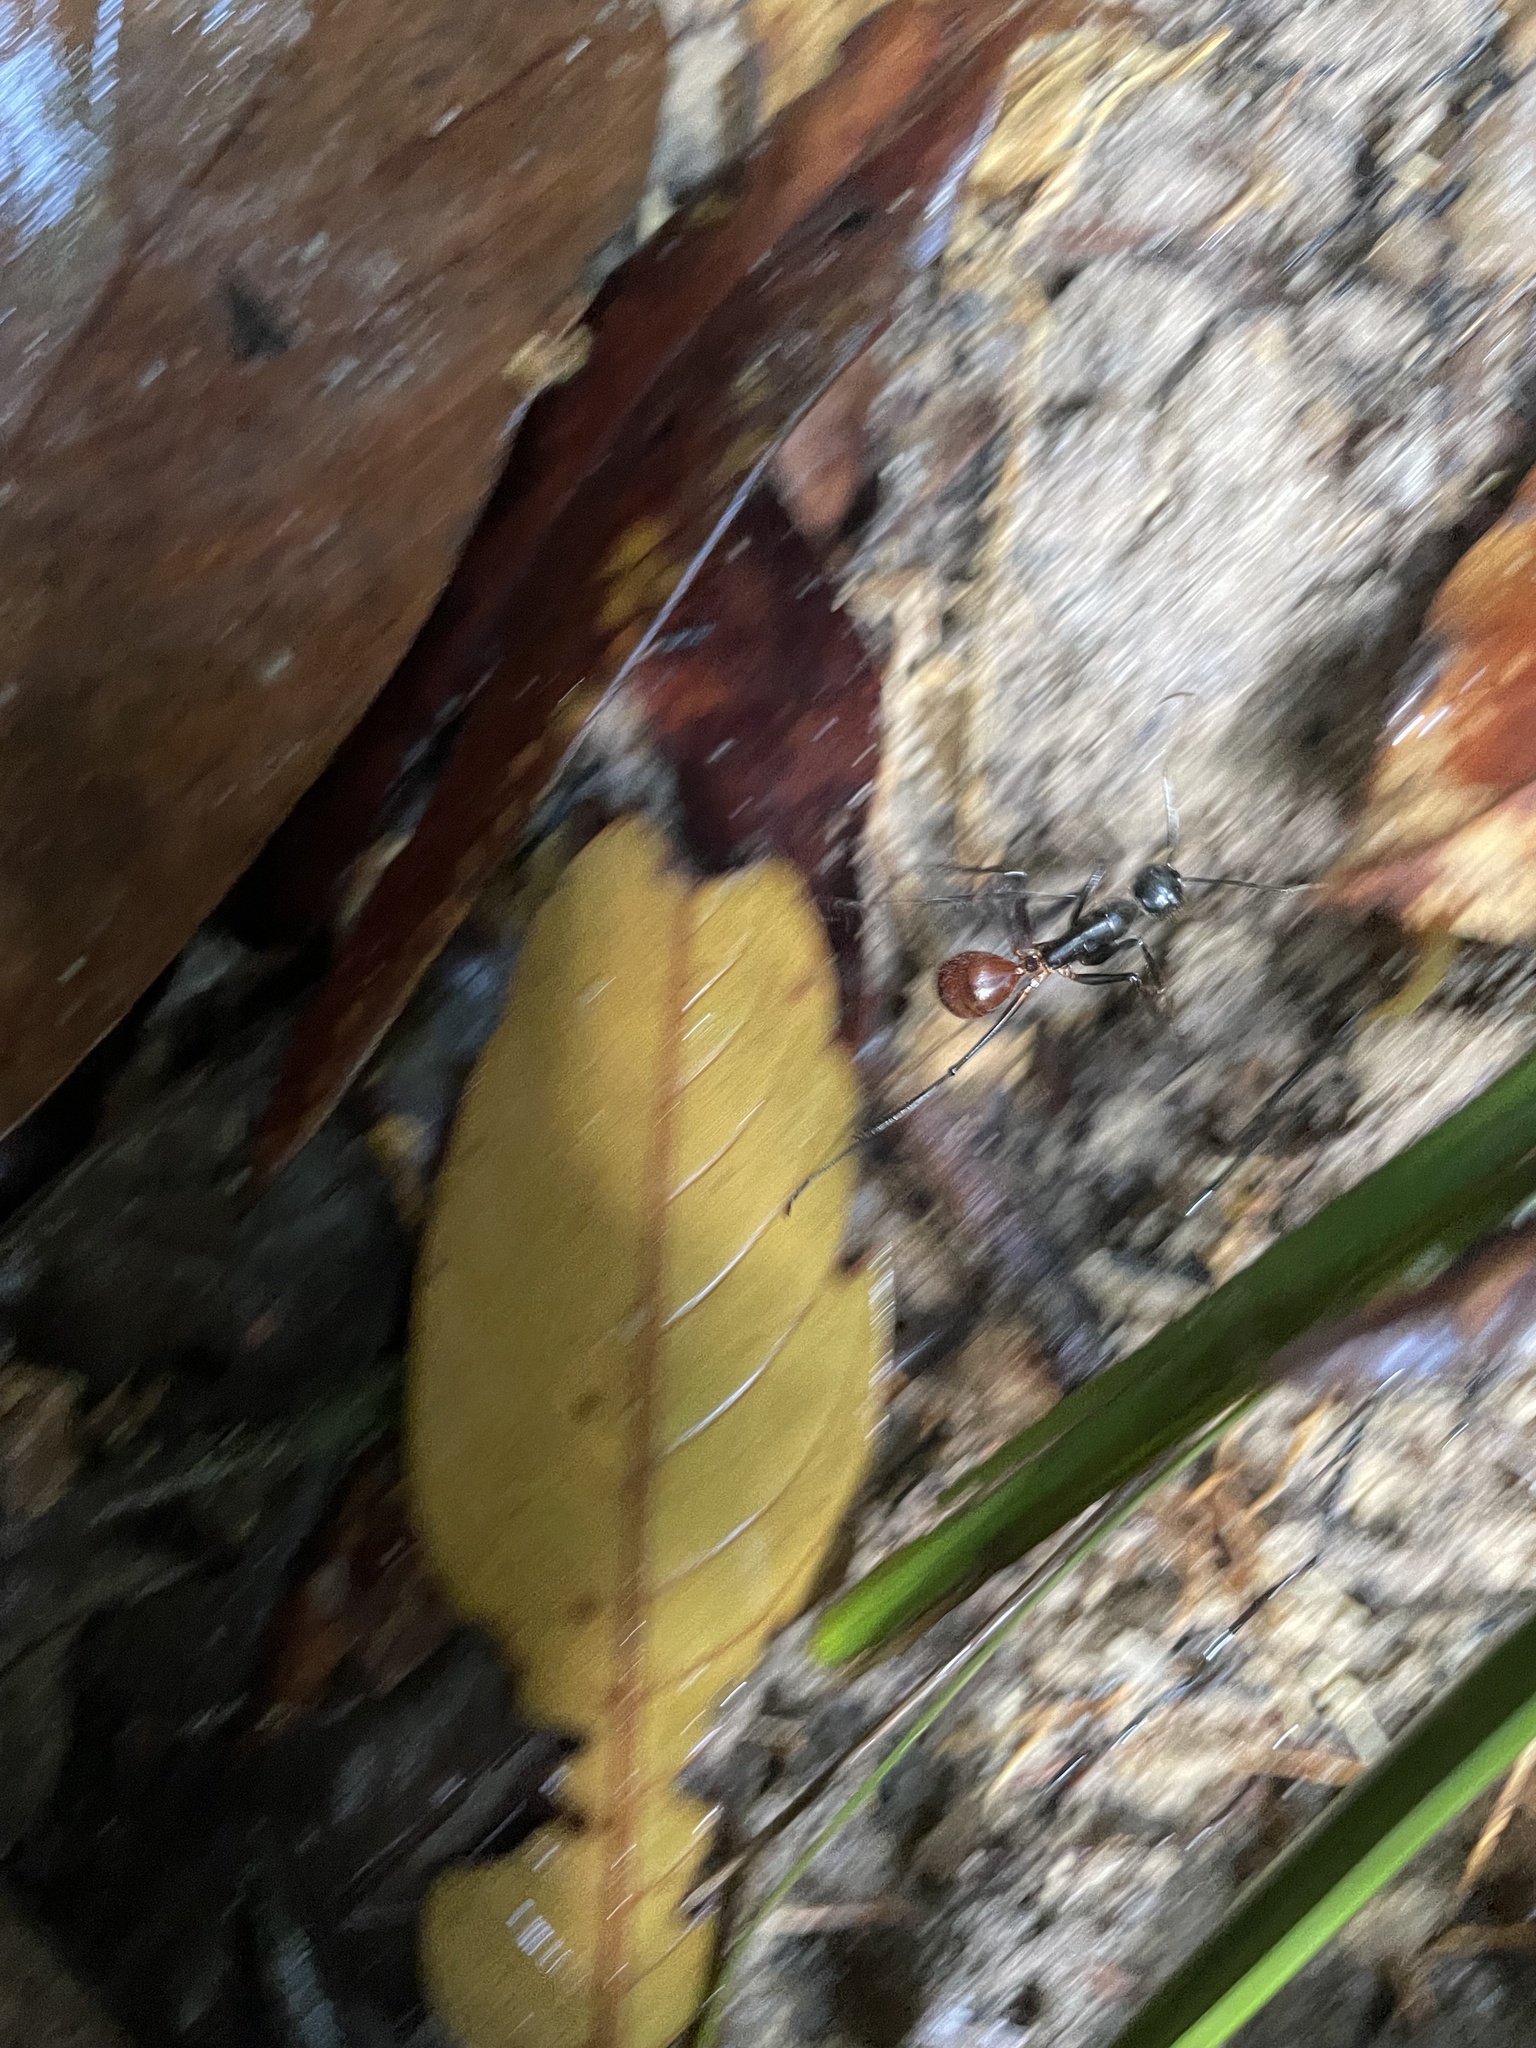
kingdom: Animalia
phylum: Arthropoda
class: Insecta
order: Hymenoptera
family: Formicidae
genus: Dinomyrmex
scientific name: Dinomyrmex
